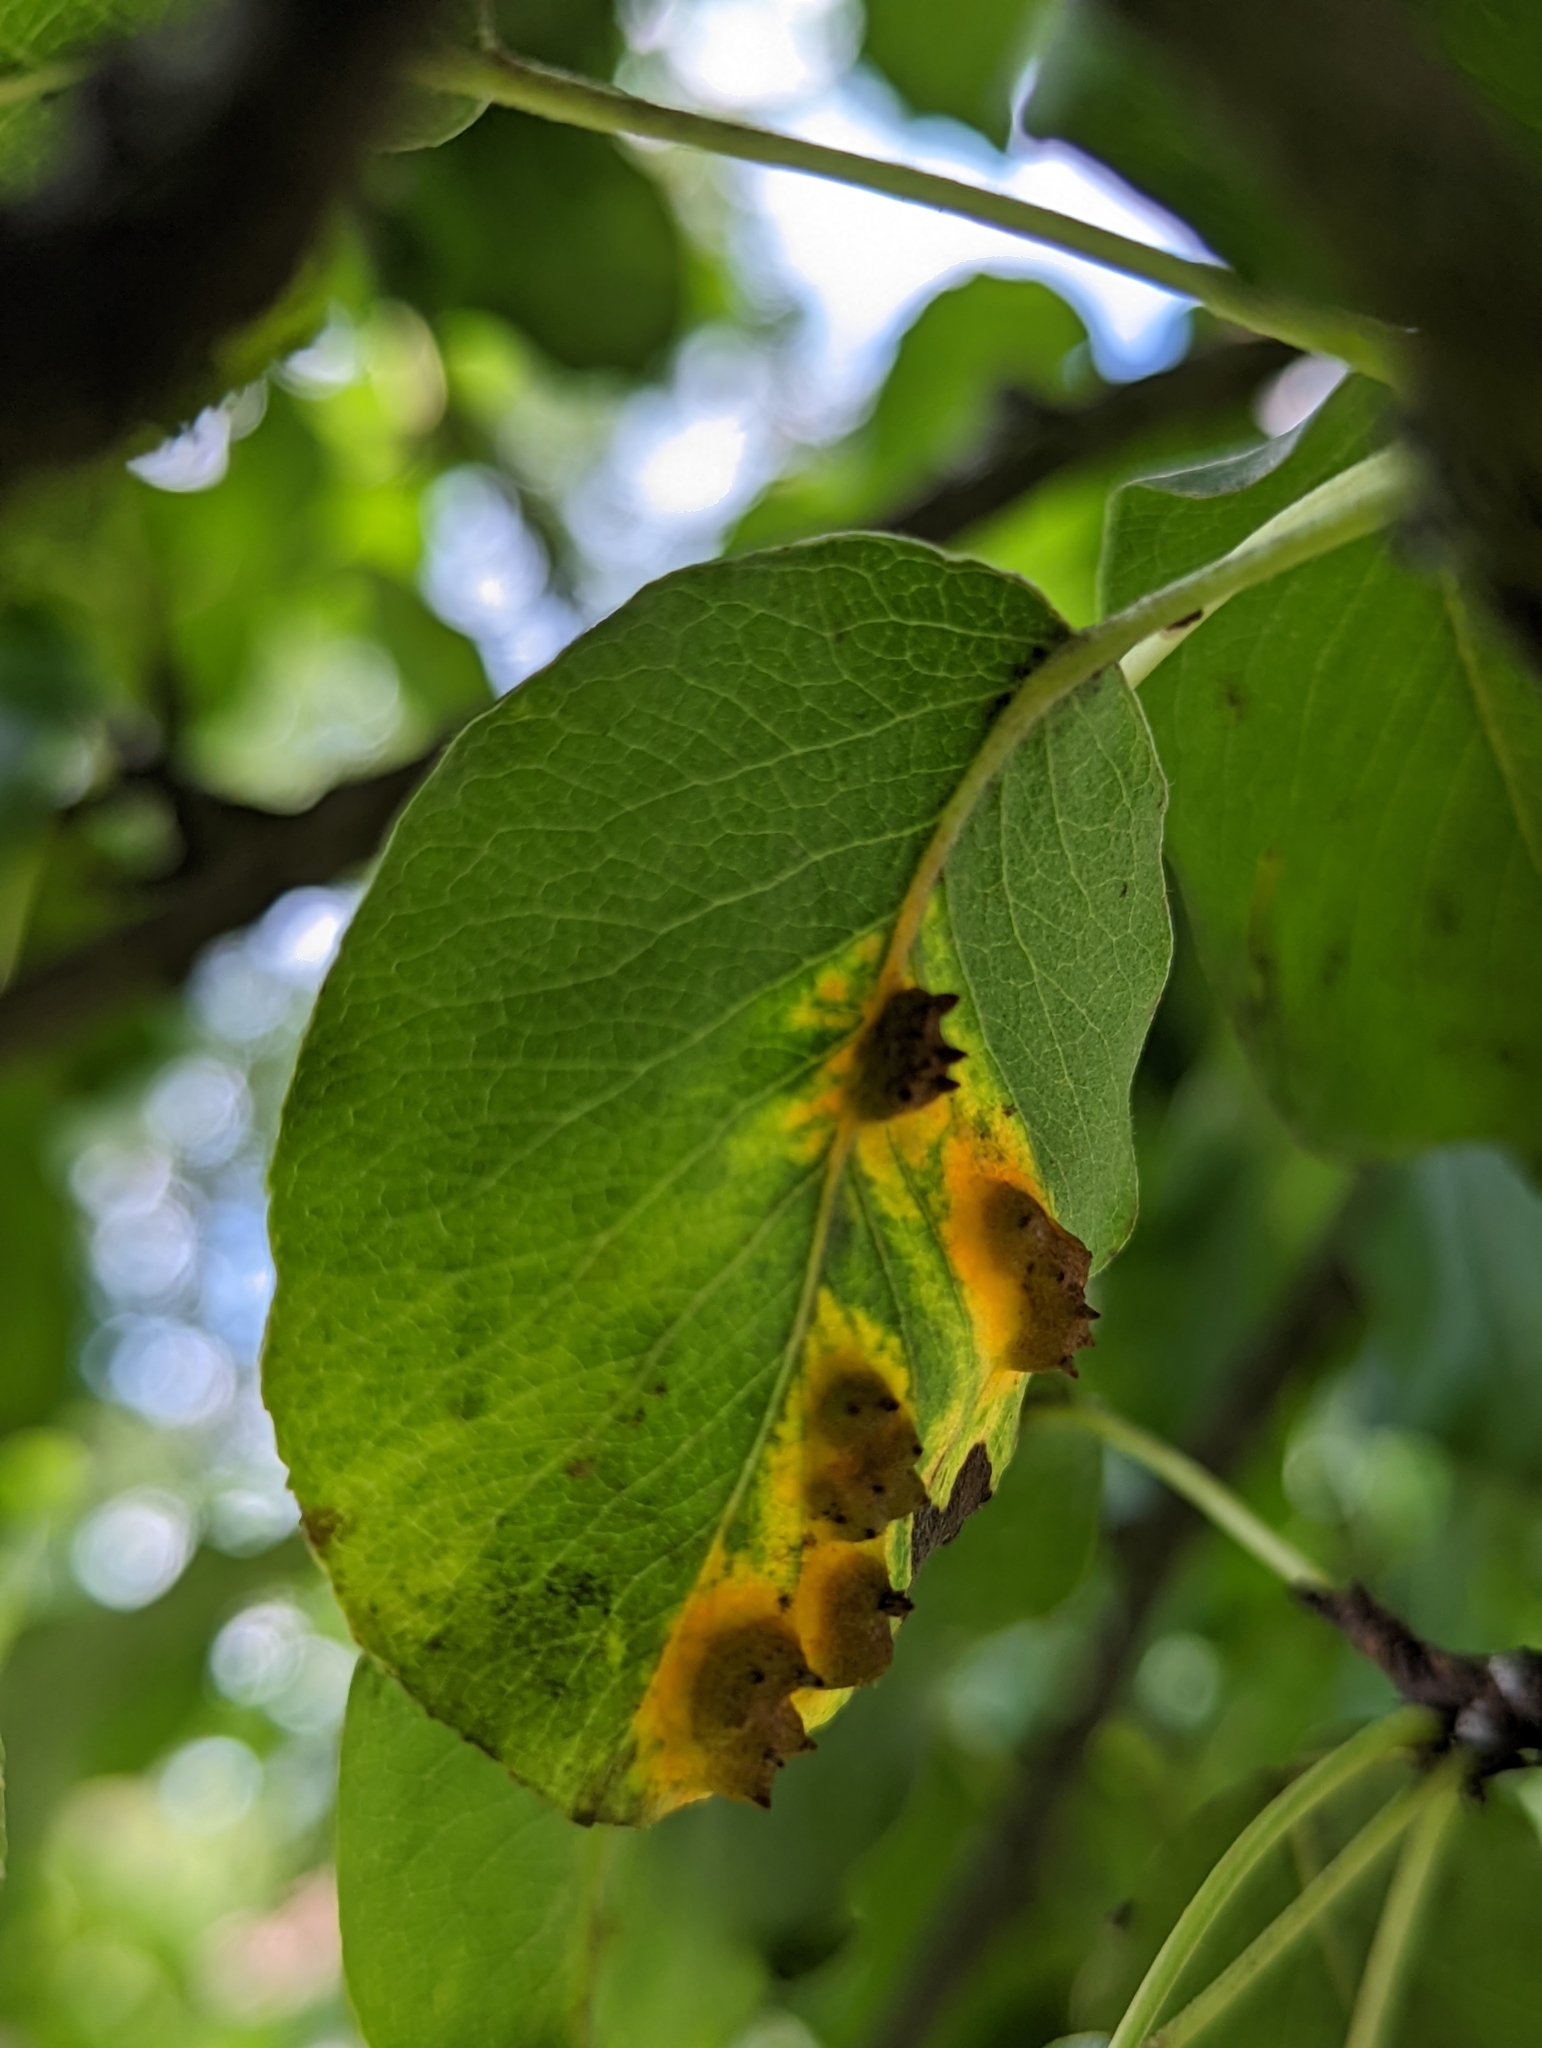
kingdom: Fungi
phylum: Basidiomycota
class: Pucciniomycetes
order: Pucciniales
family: Gymnosporangiaceae
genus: Gymnosporangium
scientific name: Gymnosporangium sabinae
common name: Pear trellis rust fungus
